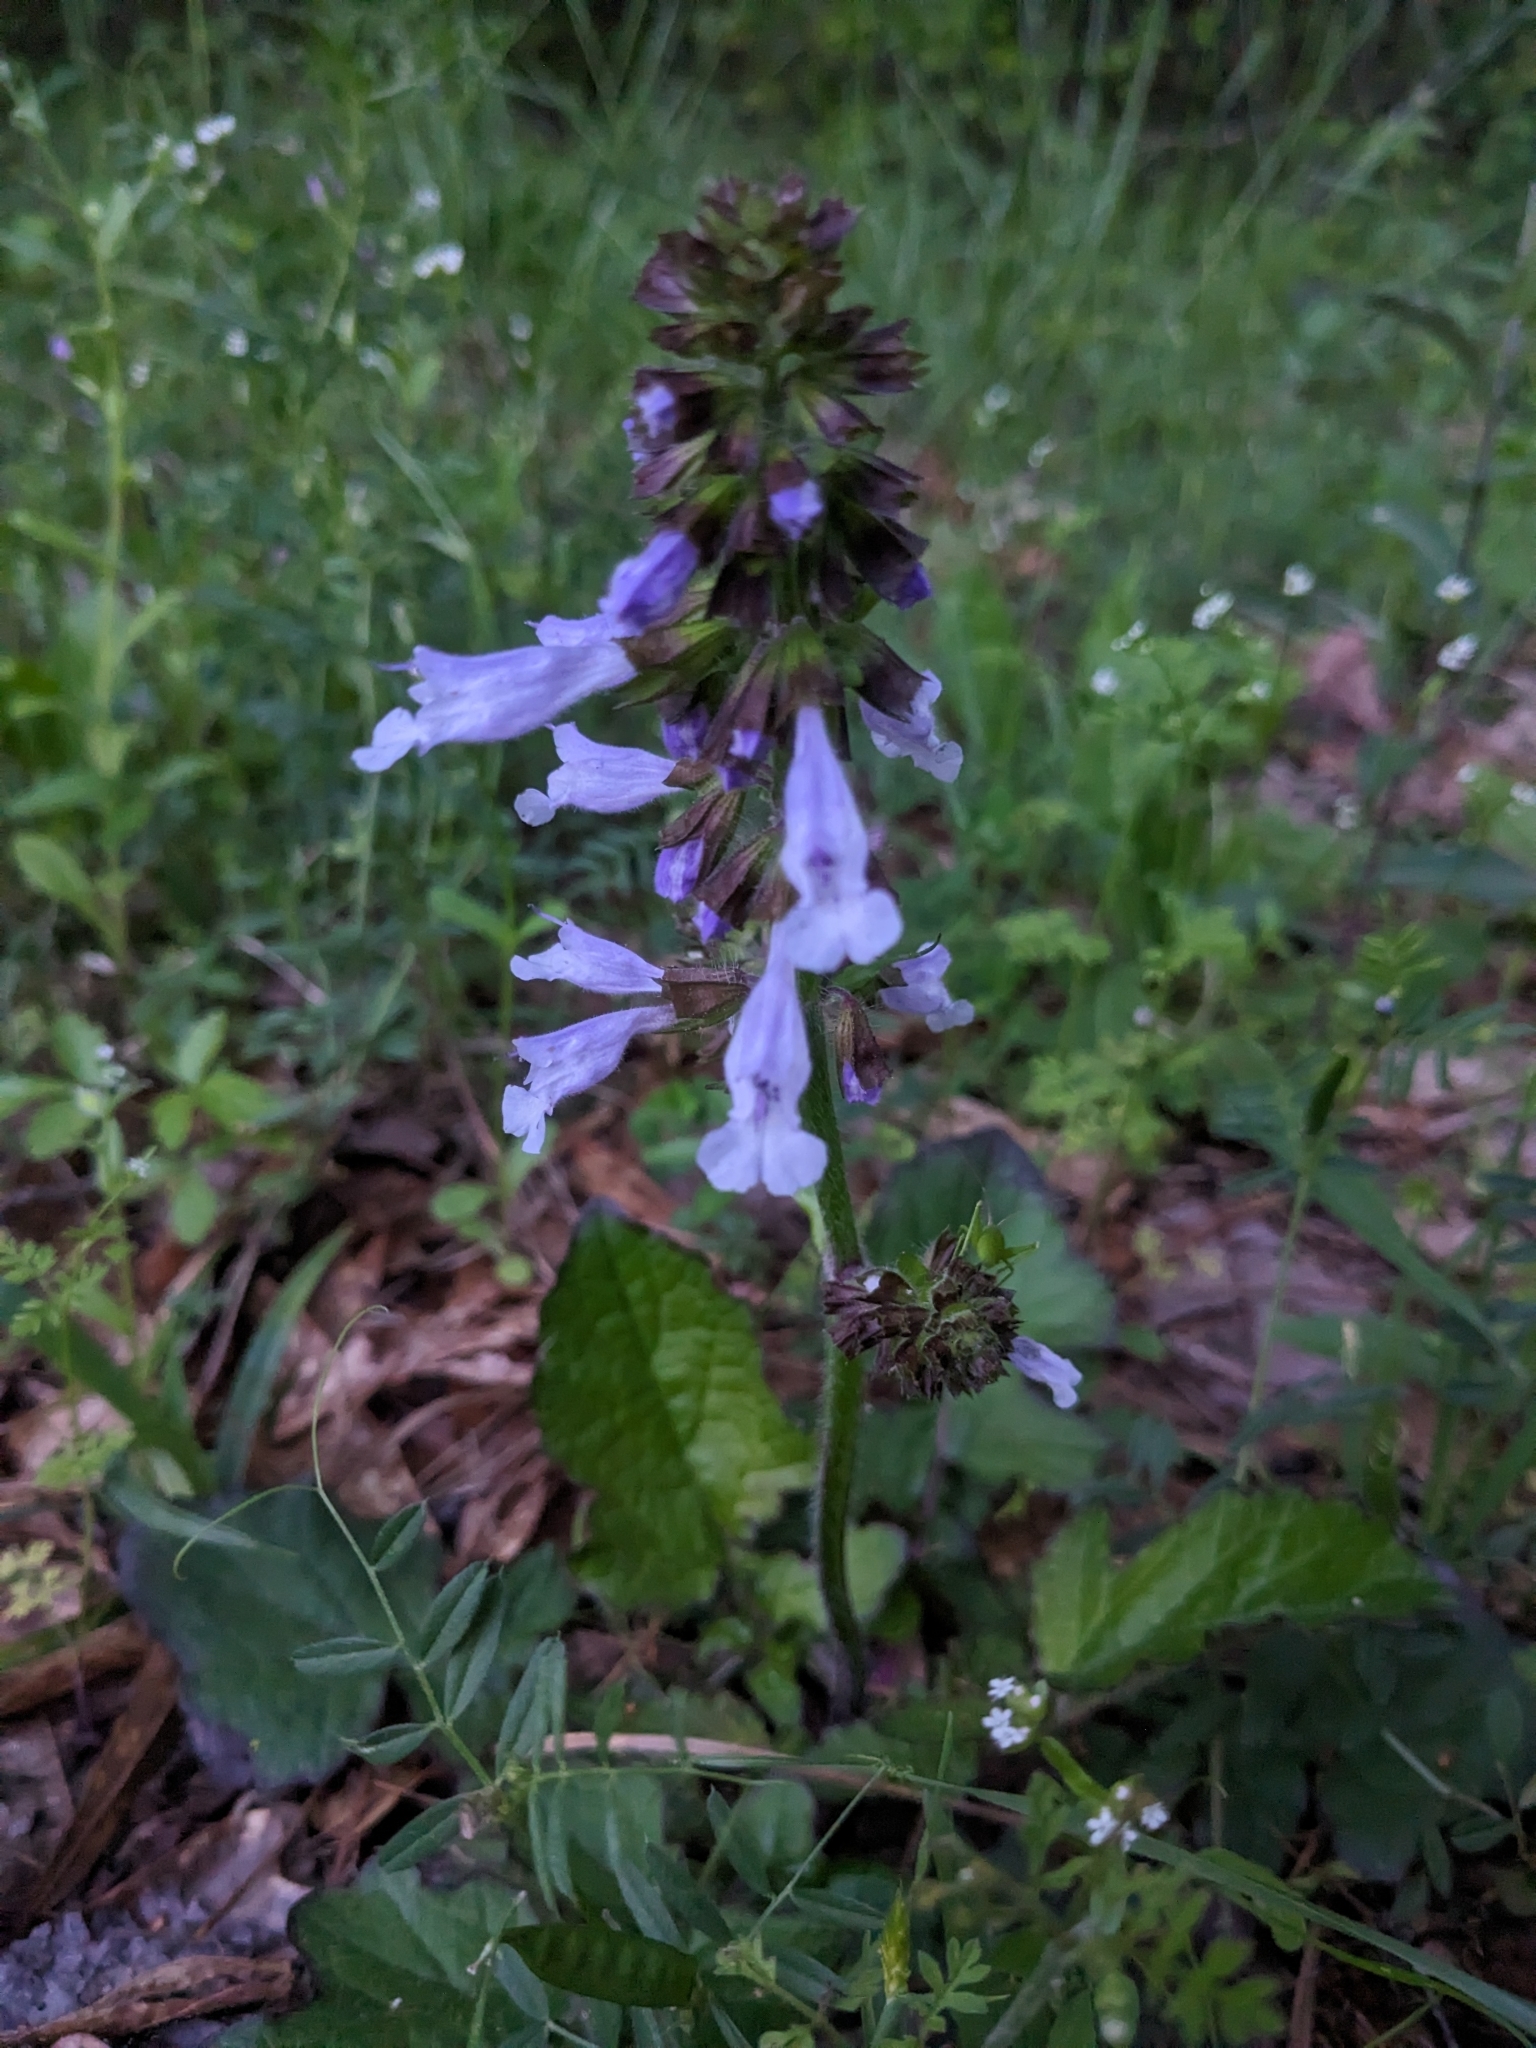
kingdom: Plantae
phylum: Tracheophyta
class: Magnoliopsida
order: Lamiales
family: Lamiaceae
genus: Salvia
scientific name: Salvia lyrata
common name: Cancerweed
